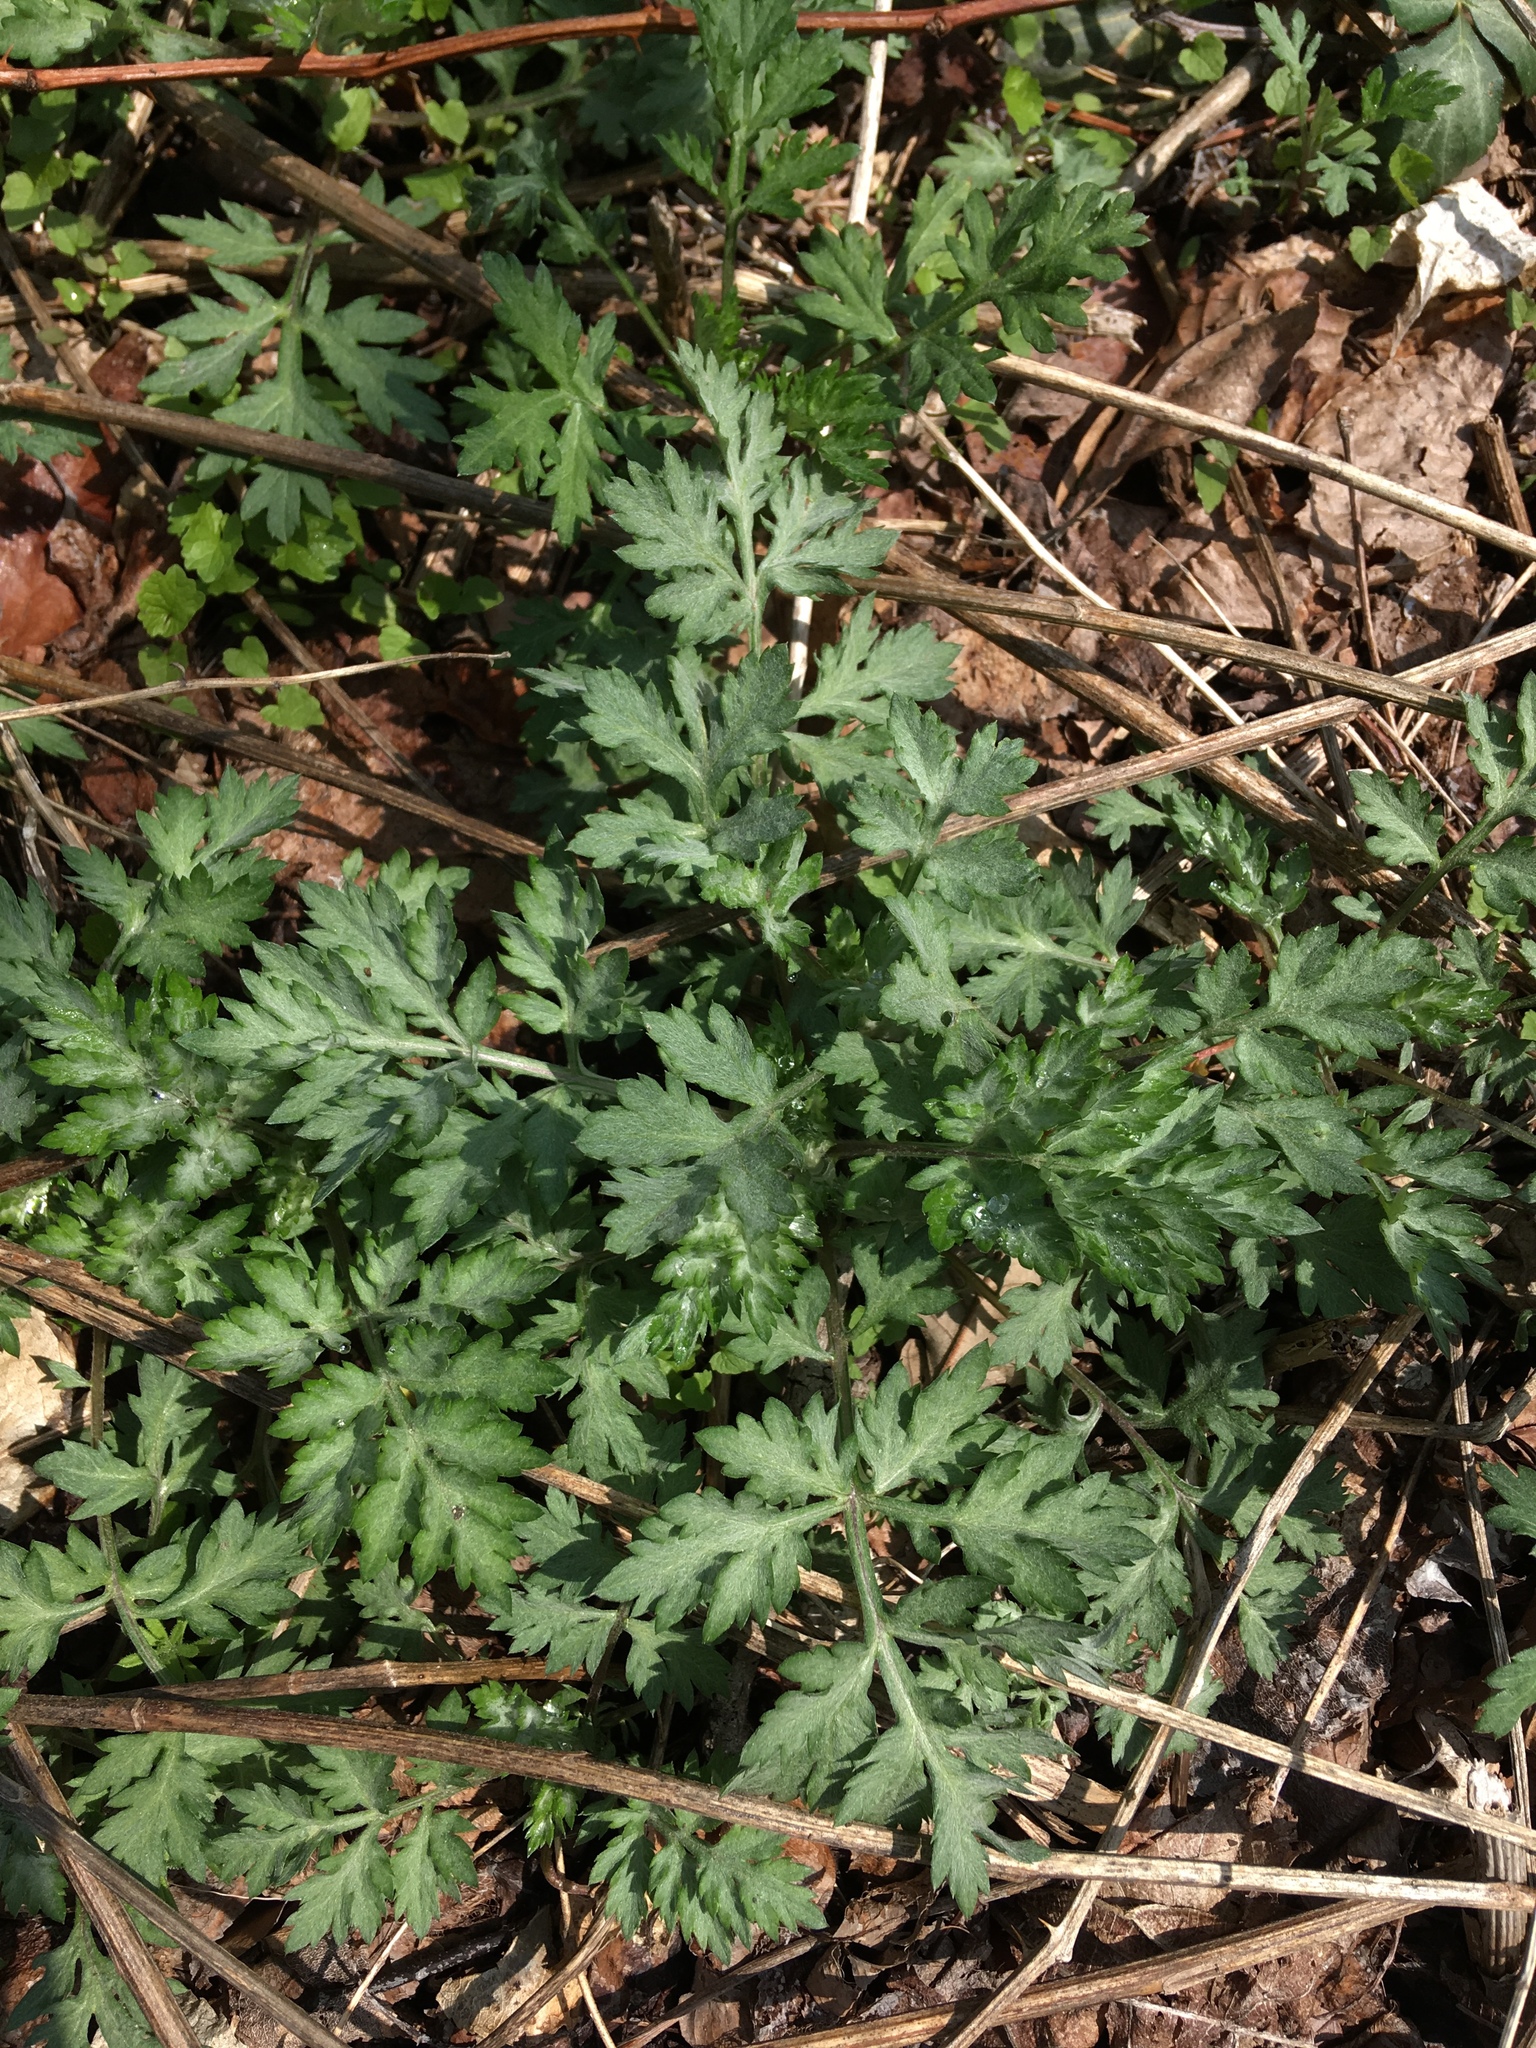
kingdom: Plantae
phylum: Tracheophyta
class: Magnoliopsida
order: Asterales
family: Asteraceae
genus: Artemisia
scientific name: Artemisia vulgaris
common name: Mugwort
